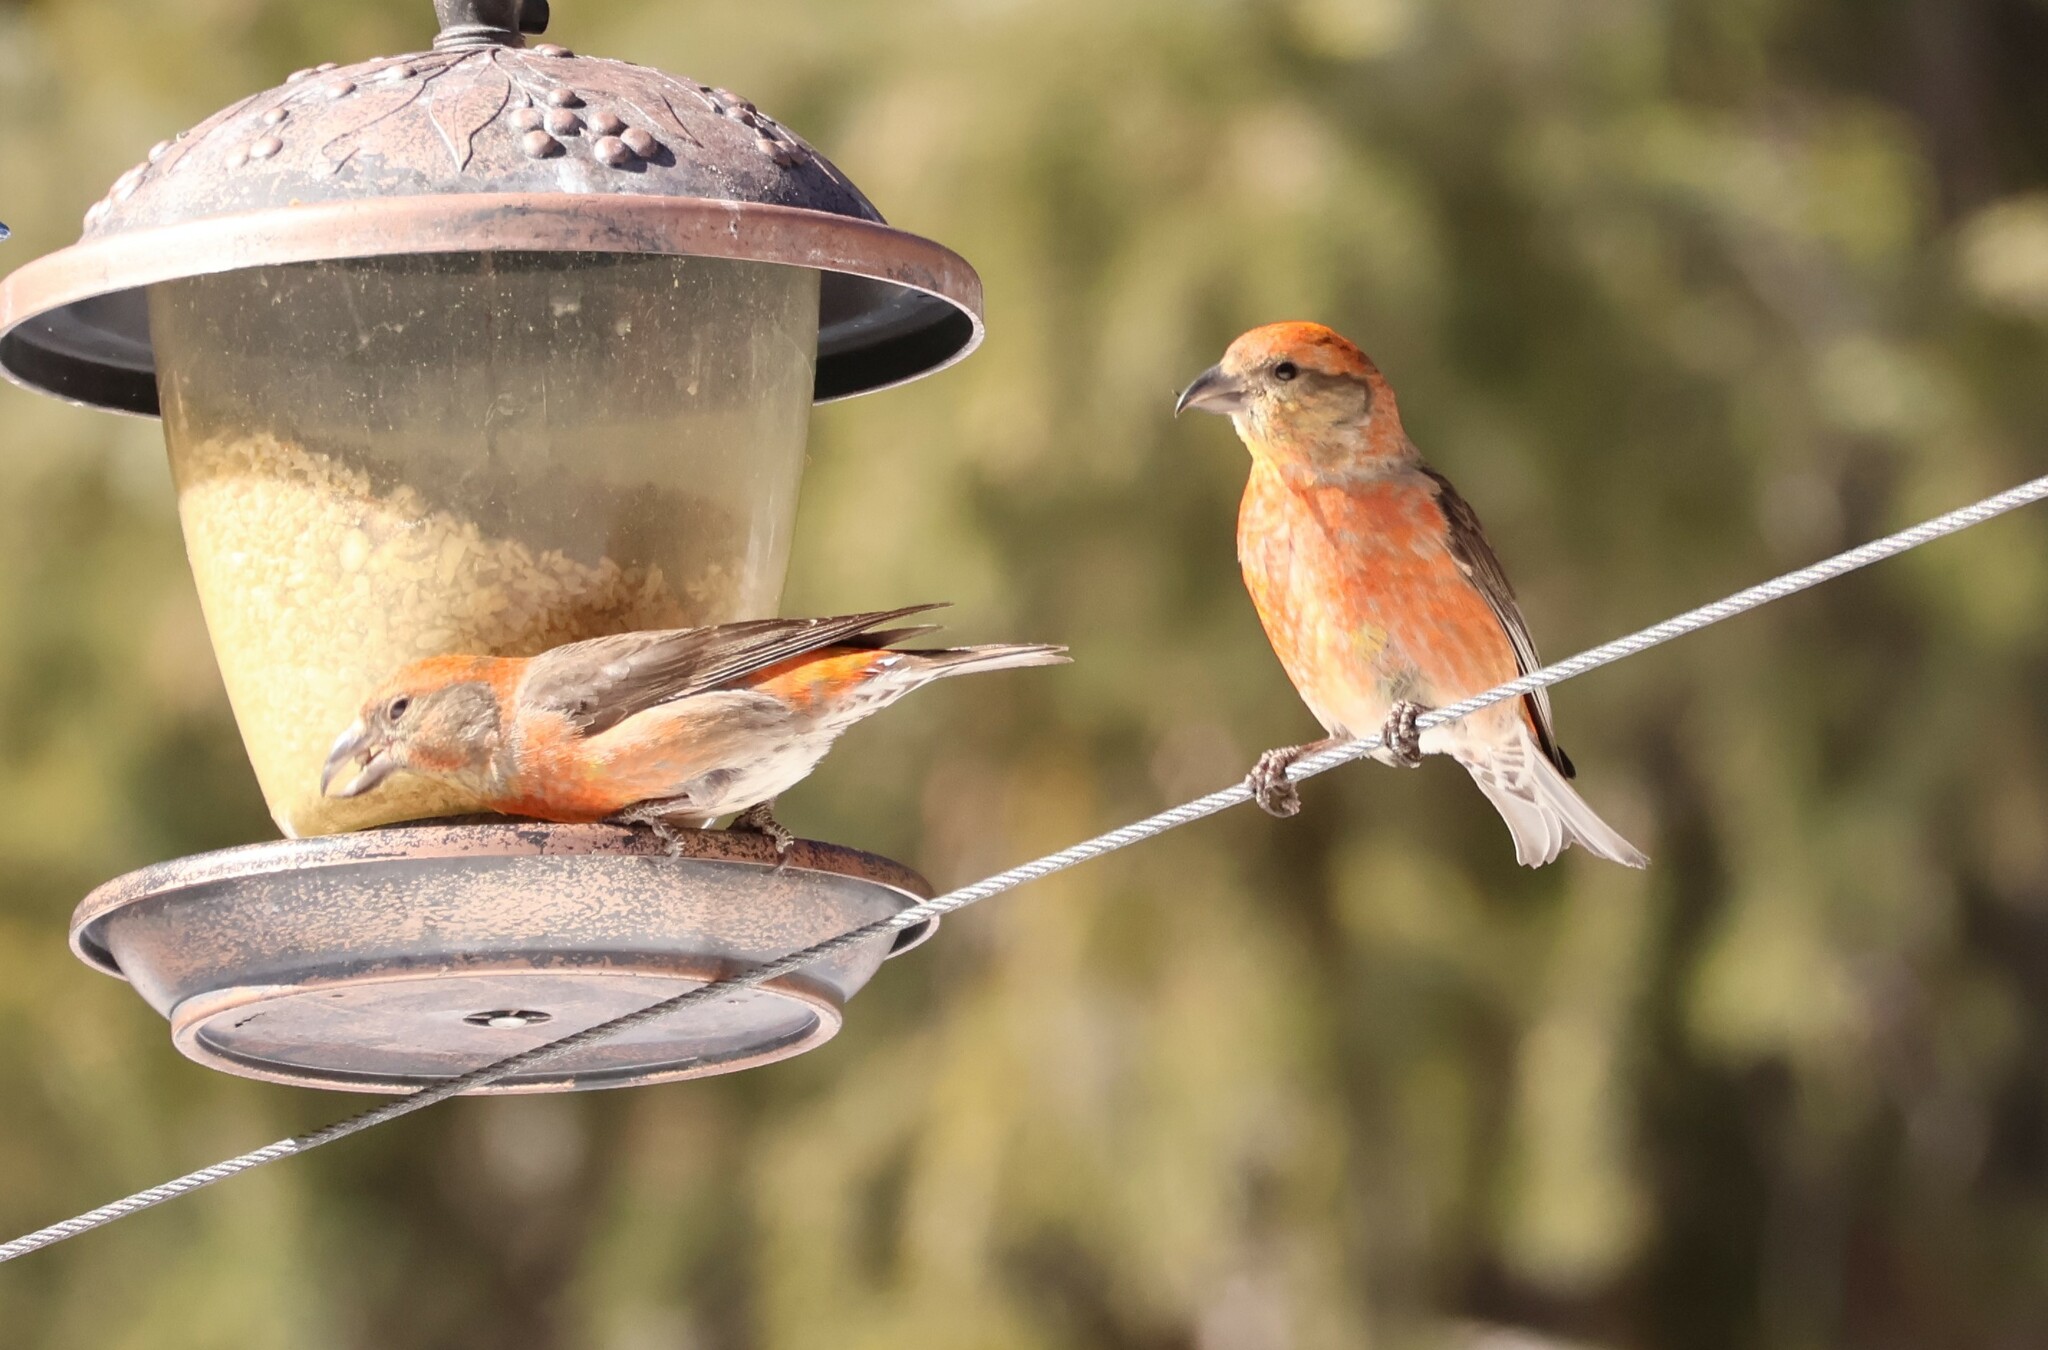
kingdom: Animalia
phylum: Chordata
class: Aves
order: Passeriformes
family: Fringillidae
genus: Loxia
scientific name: Loxia curvirostra
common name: Red crossbill
